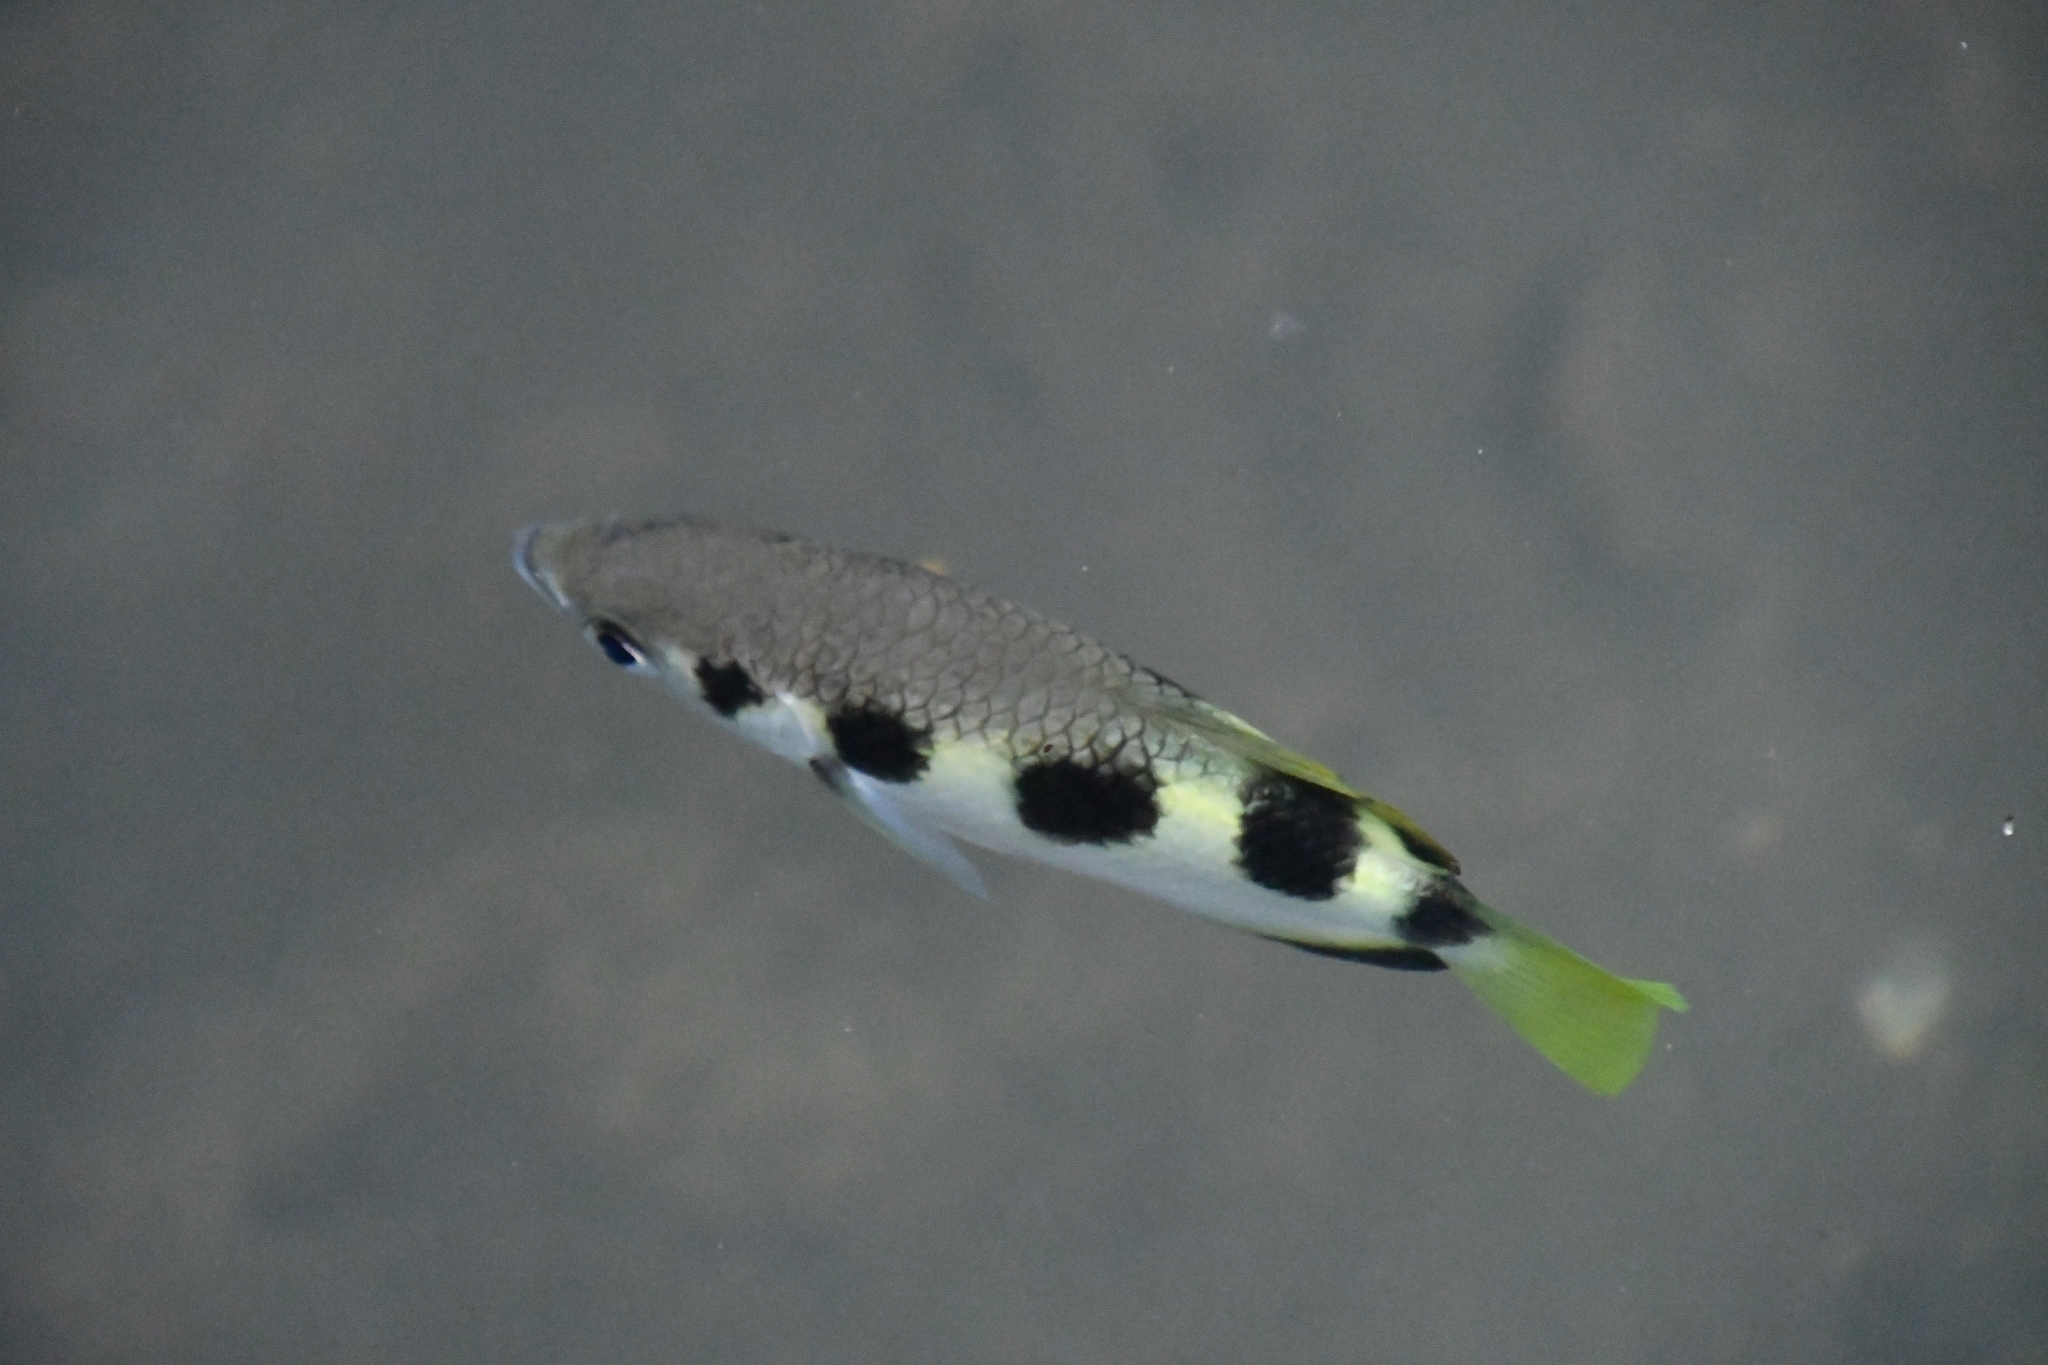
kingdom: Animalia
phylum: Chordata
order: Perciformes
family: Toxotidae
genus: Toxotes
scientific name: Toxotes jaculatrix
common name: Banded archerfish
